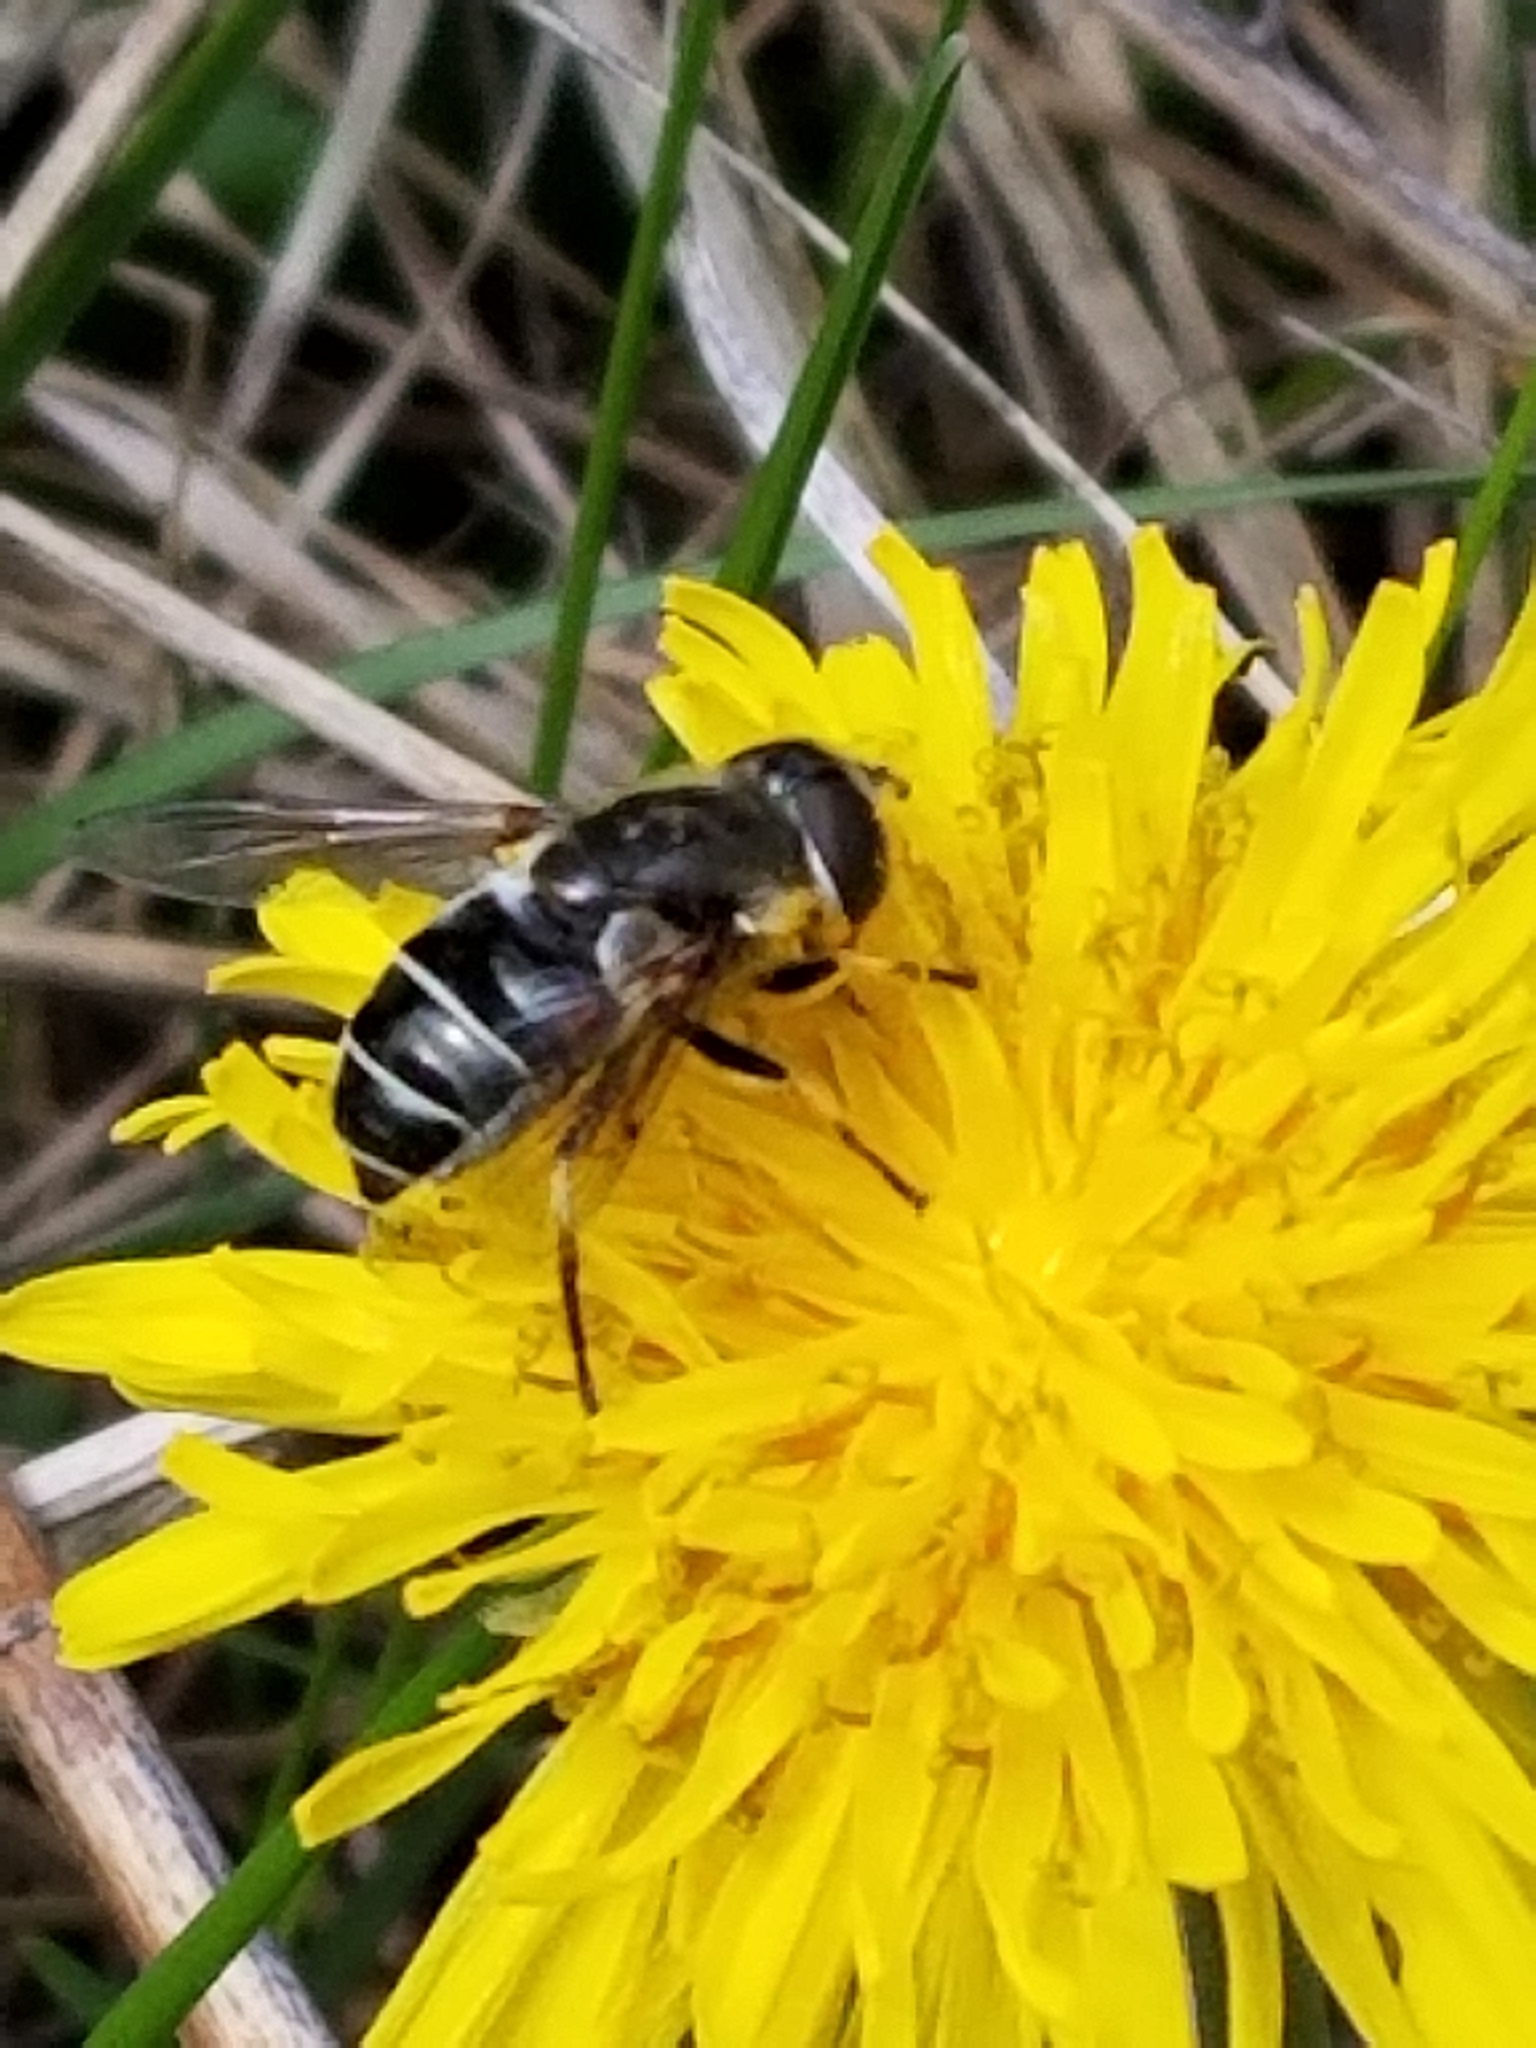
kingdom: Animalia
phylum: Arthropoda
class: Insecta
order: Diptera
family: Syrphidae
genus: Eristalis
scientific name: Eristalis dimidiata
